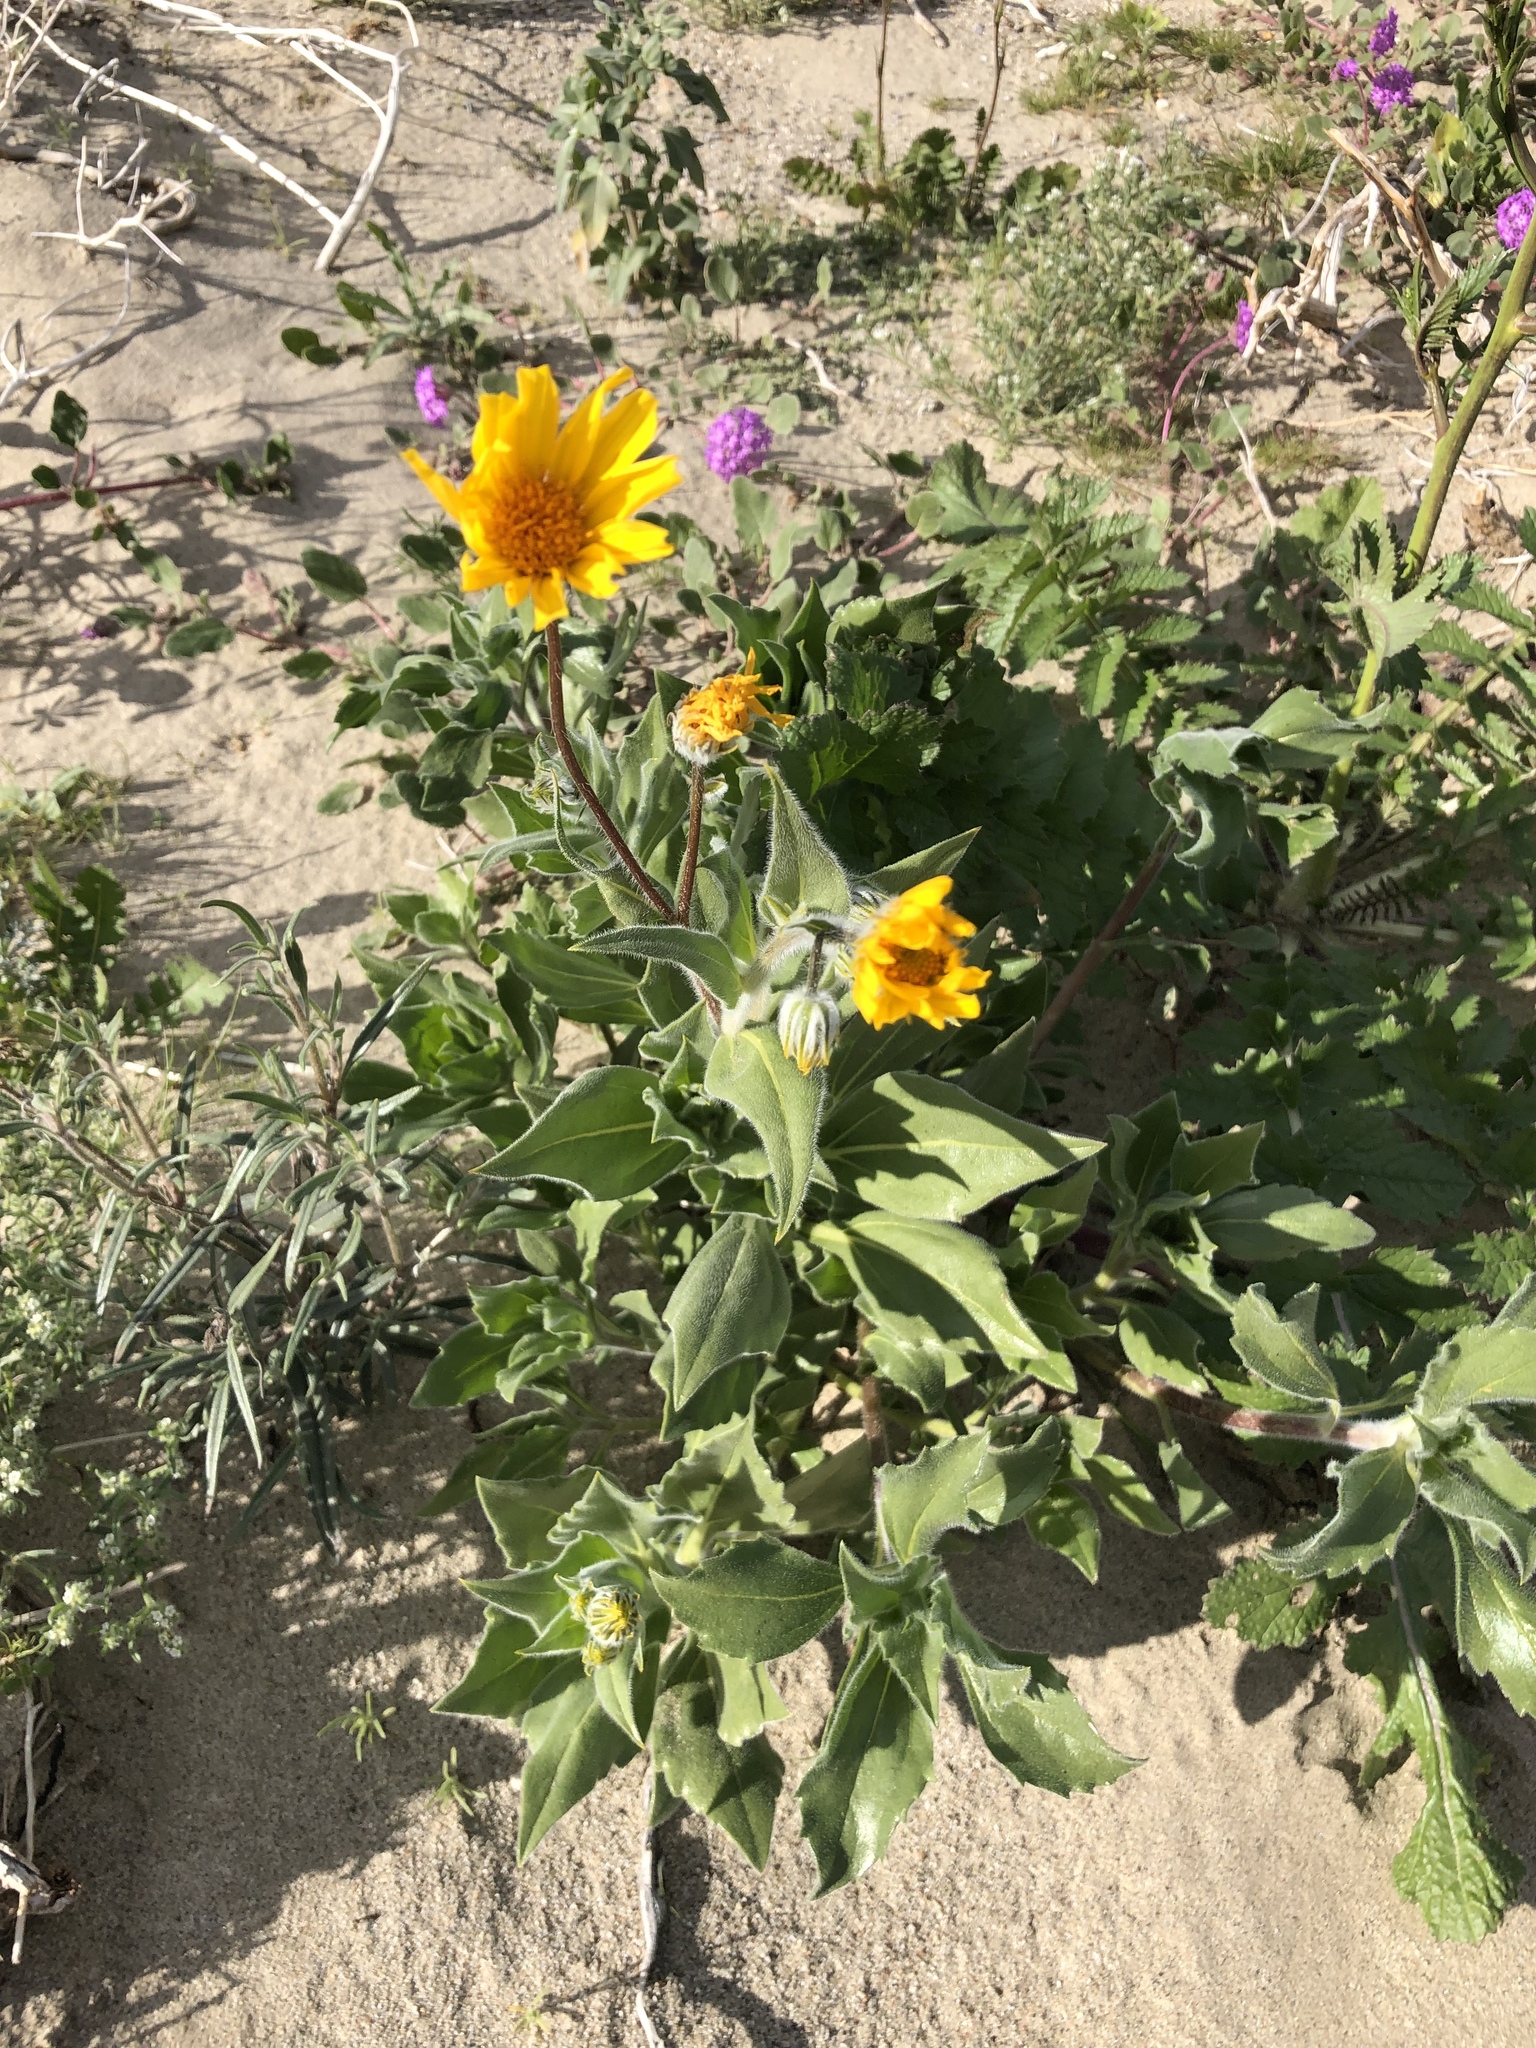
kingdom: Plantae
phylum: Tracheophyta
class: Magnoliopsida
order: Asterales
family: Asteraceae
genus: Geraea
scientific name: Geraea canescens
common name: Desert-gold
